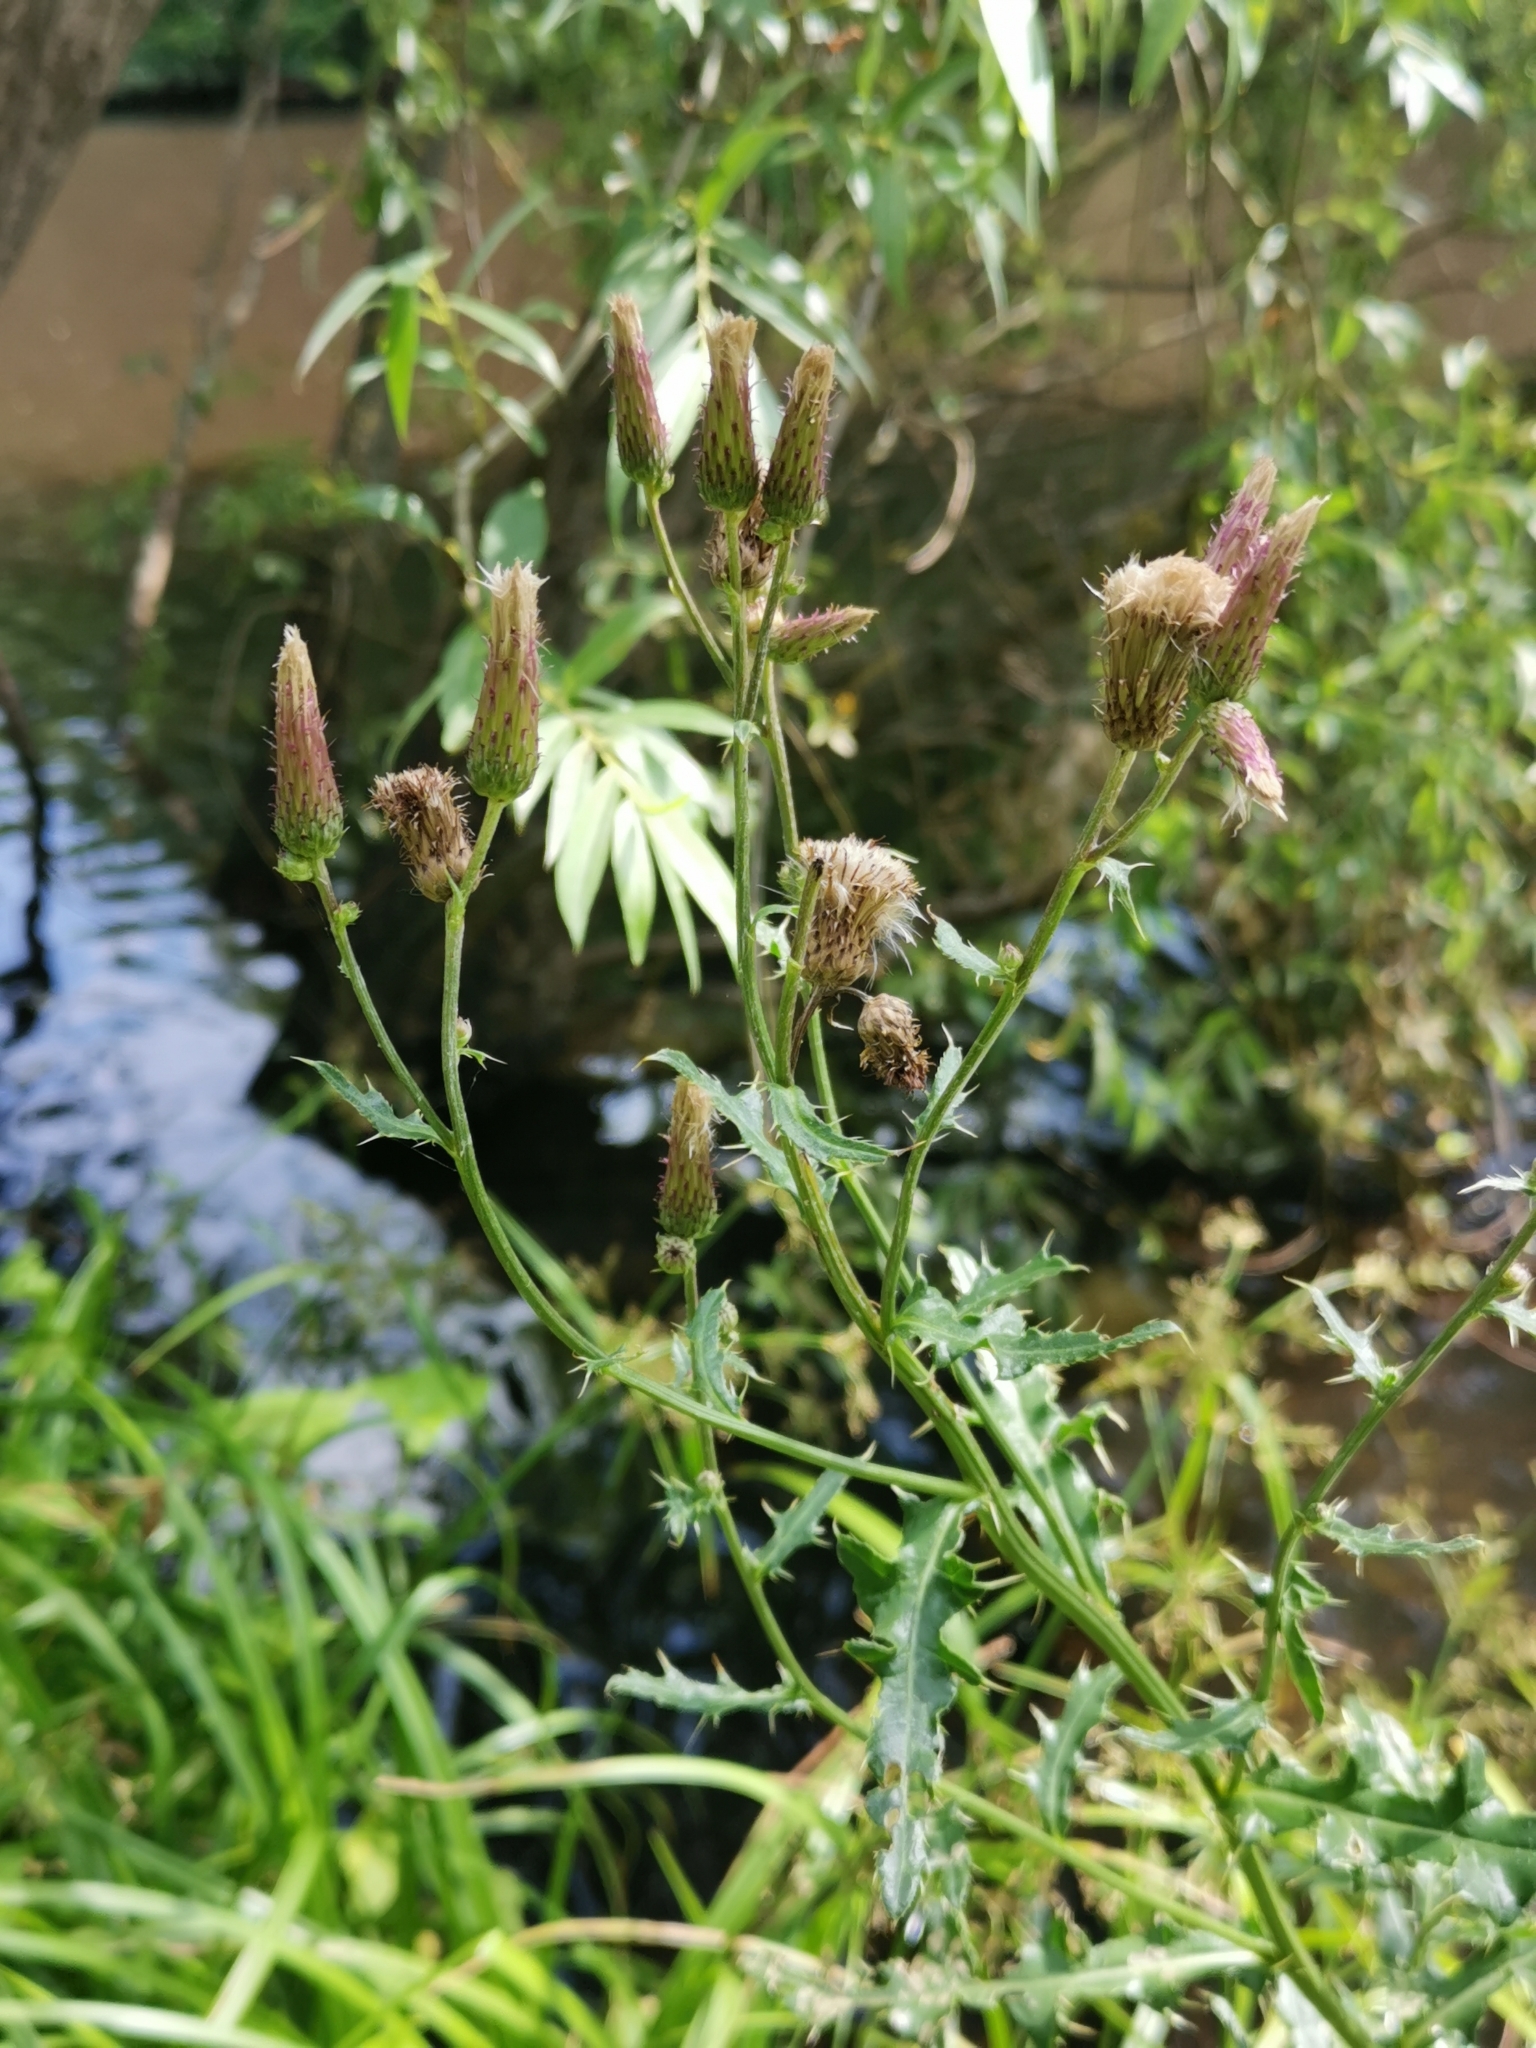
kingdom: Plantae
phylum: Tracheophyta
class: Magnoliopsida
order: Asterales
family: Asteraceae
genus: Cirsium
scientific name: Cirsium arvense
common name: Creeping thistle
